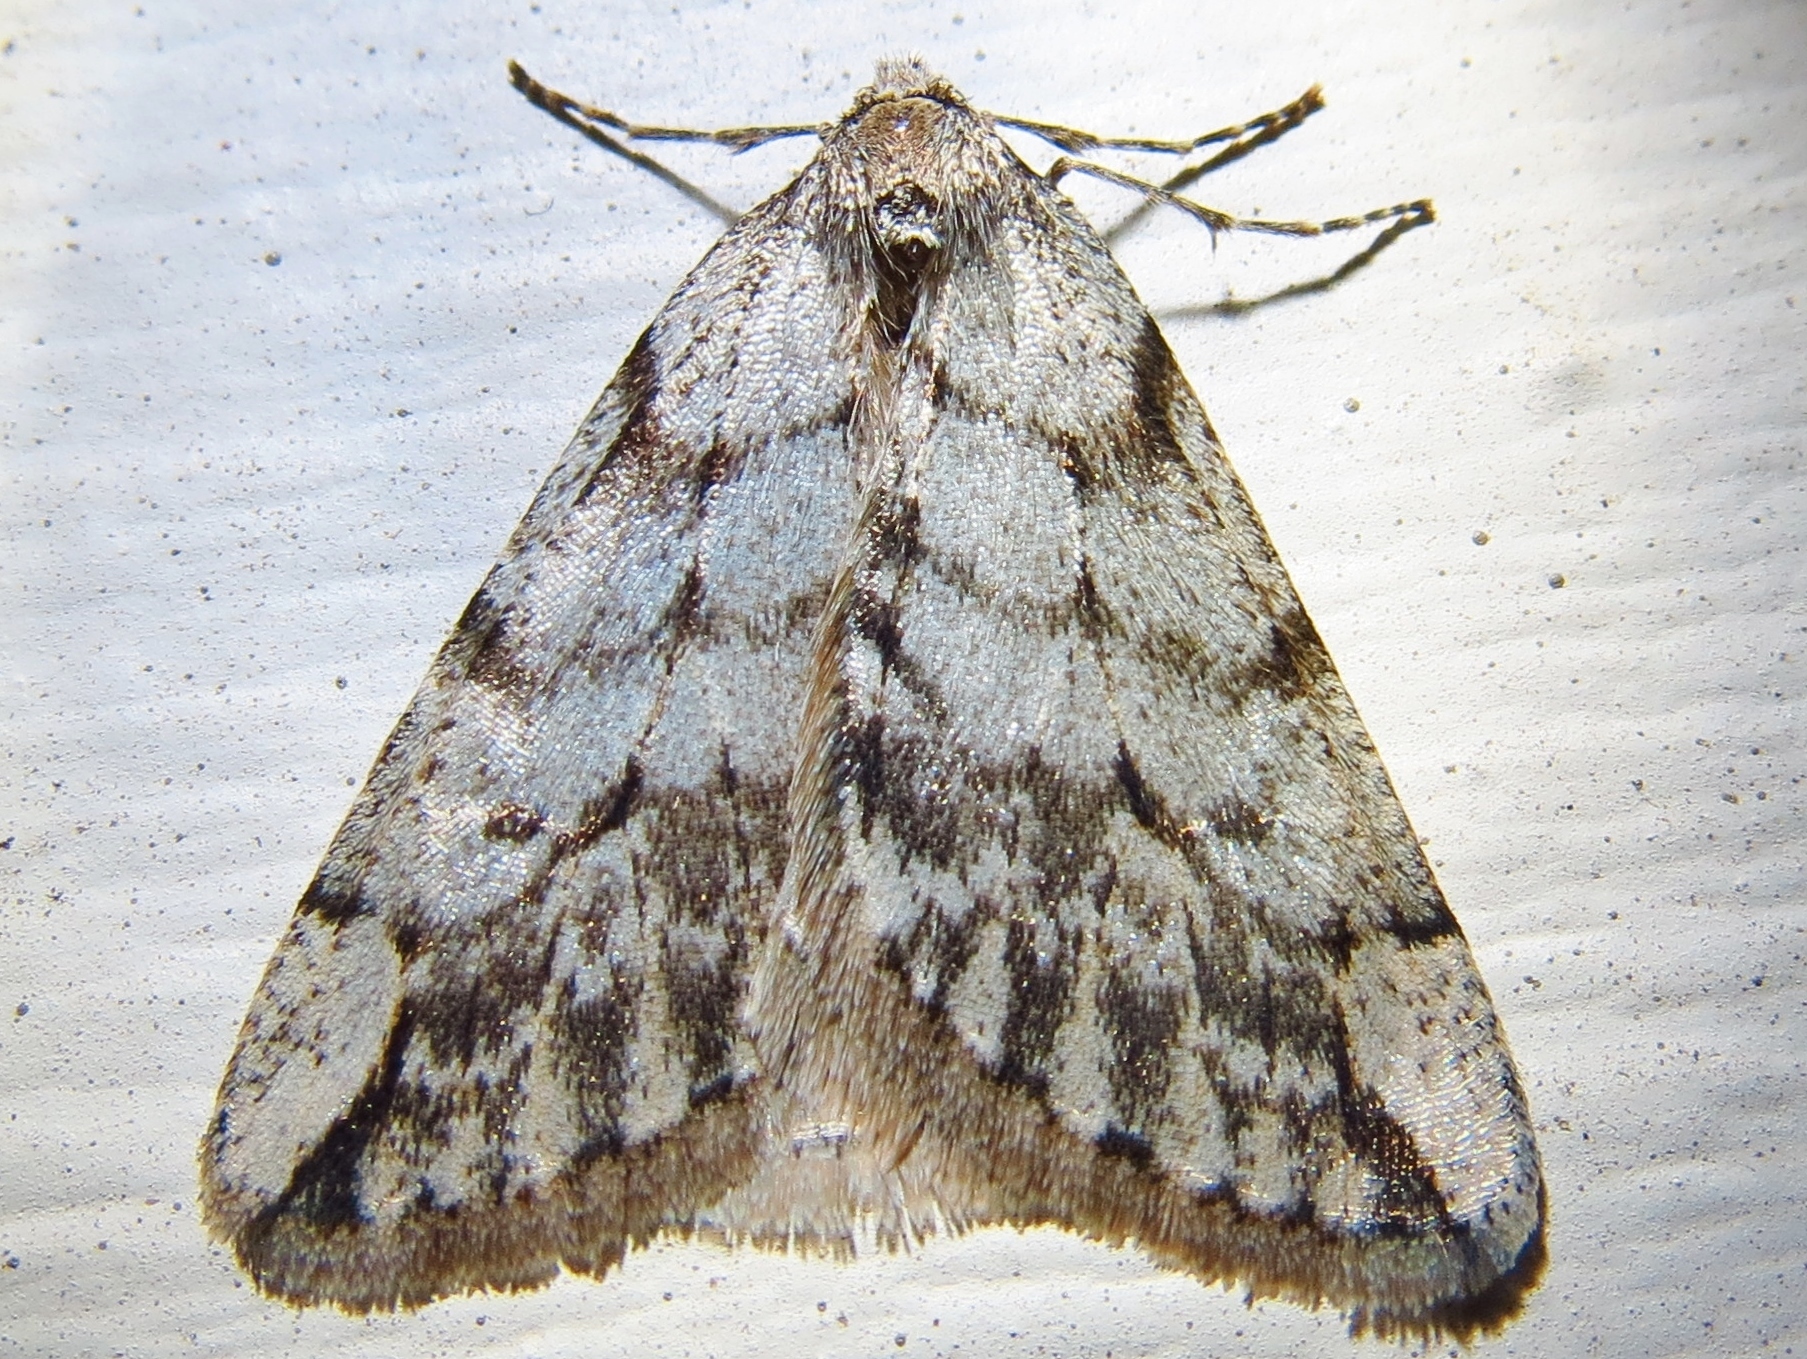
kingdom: Animalia
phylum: Arthropoda
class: Insecta
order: Lepidoptera
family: Geometridae
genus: Paleacrita
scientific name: Paleacrita vernata
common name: Spring cankerworm
